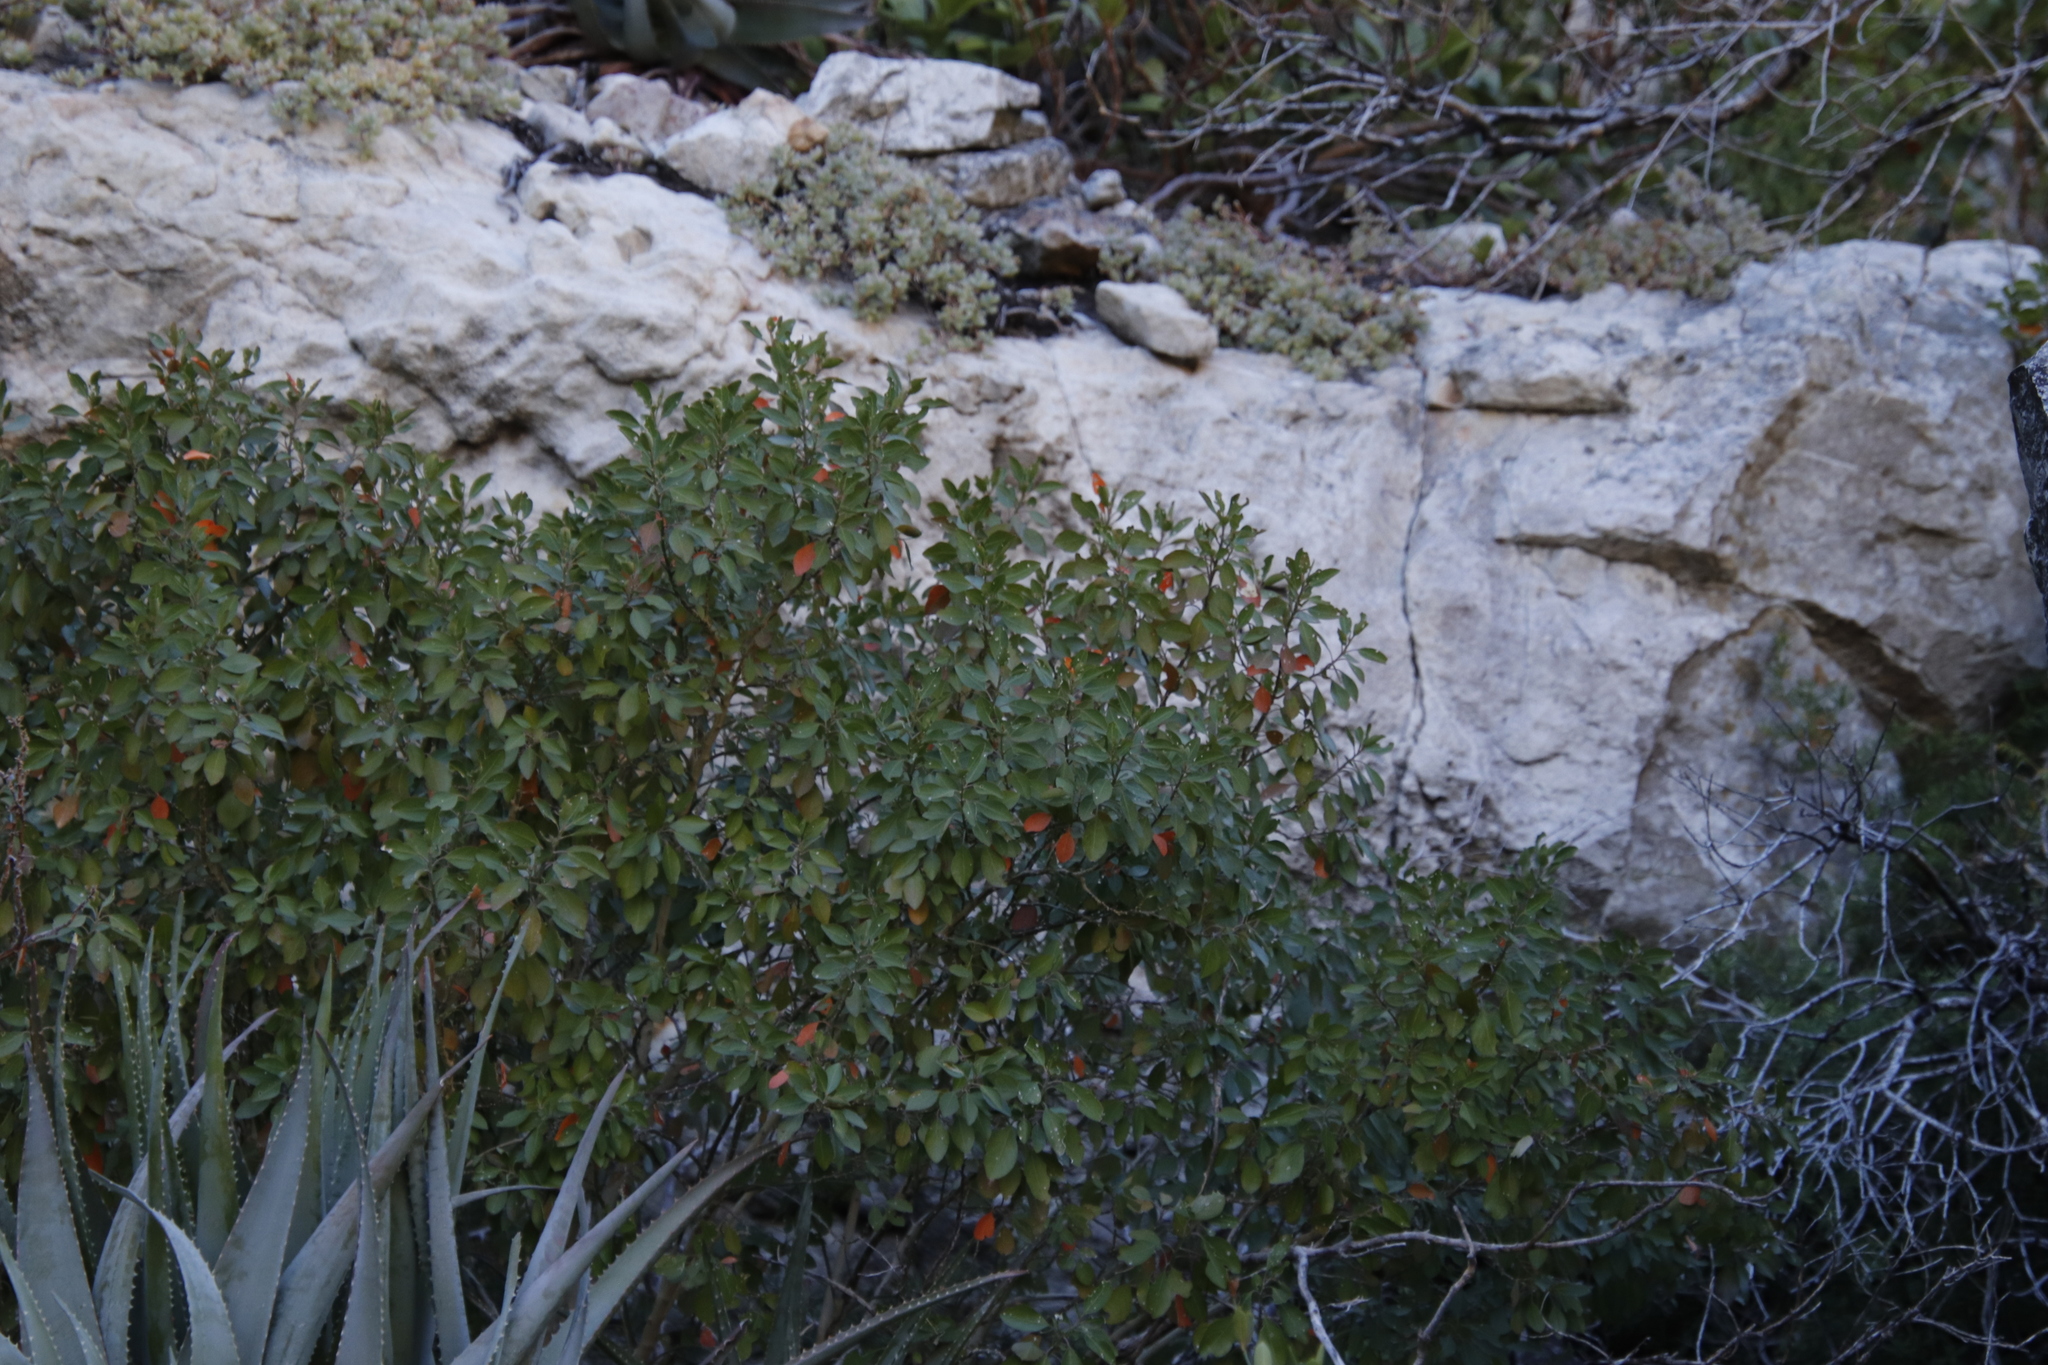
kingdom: Plantae
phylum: Tracheophyta
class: Magnoliopsida
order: Malpighiales
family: Peraceae
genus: Clutia
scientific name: Clutia pulchella
